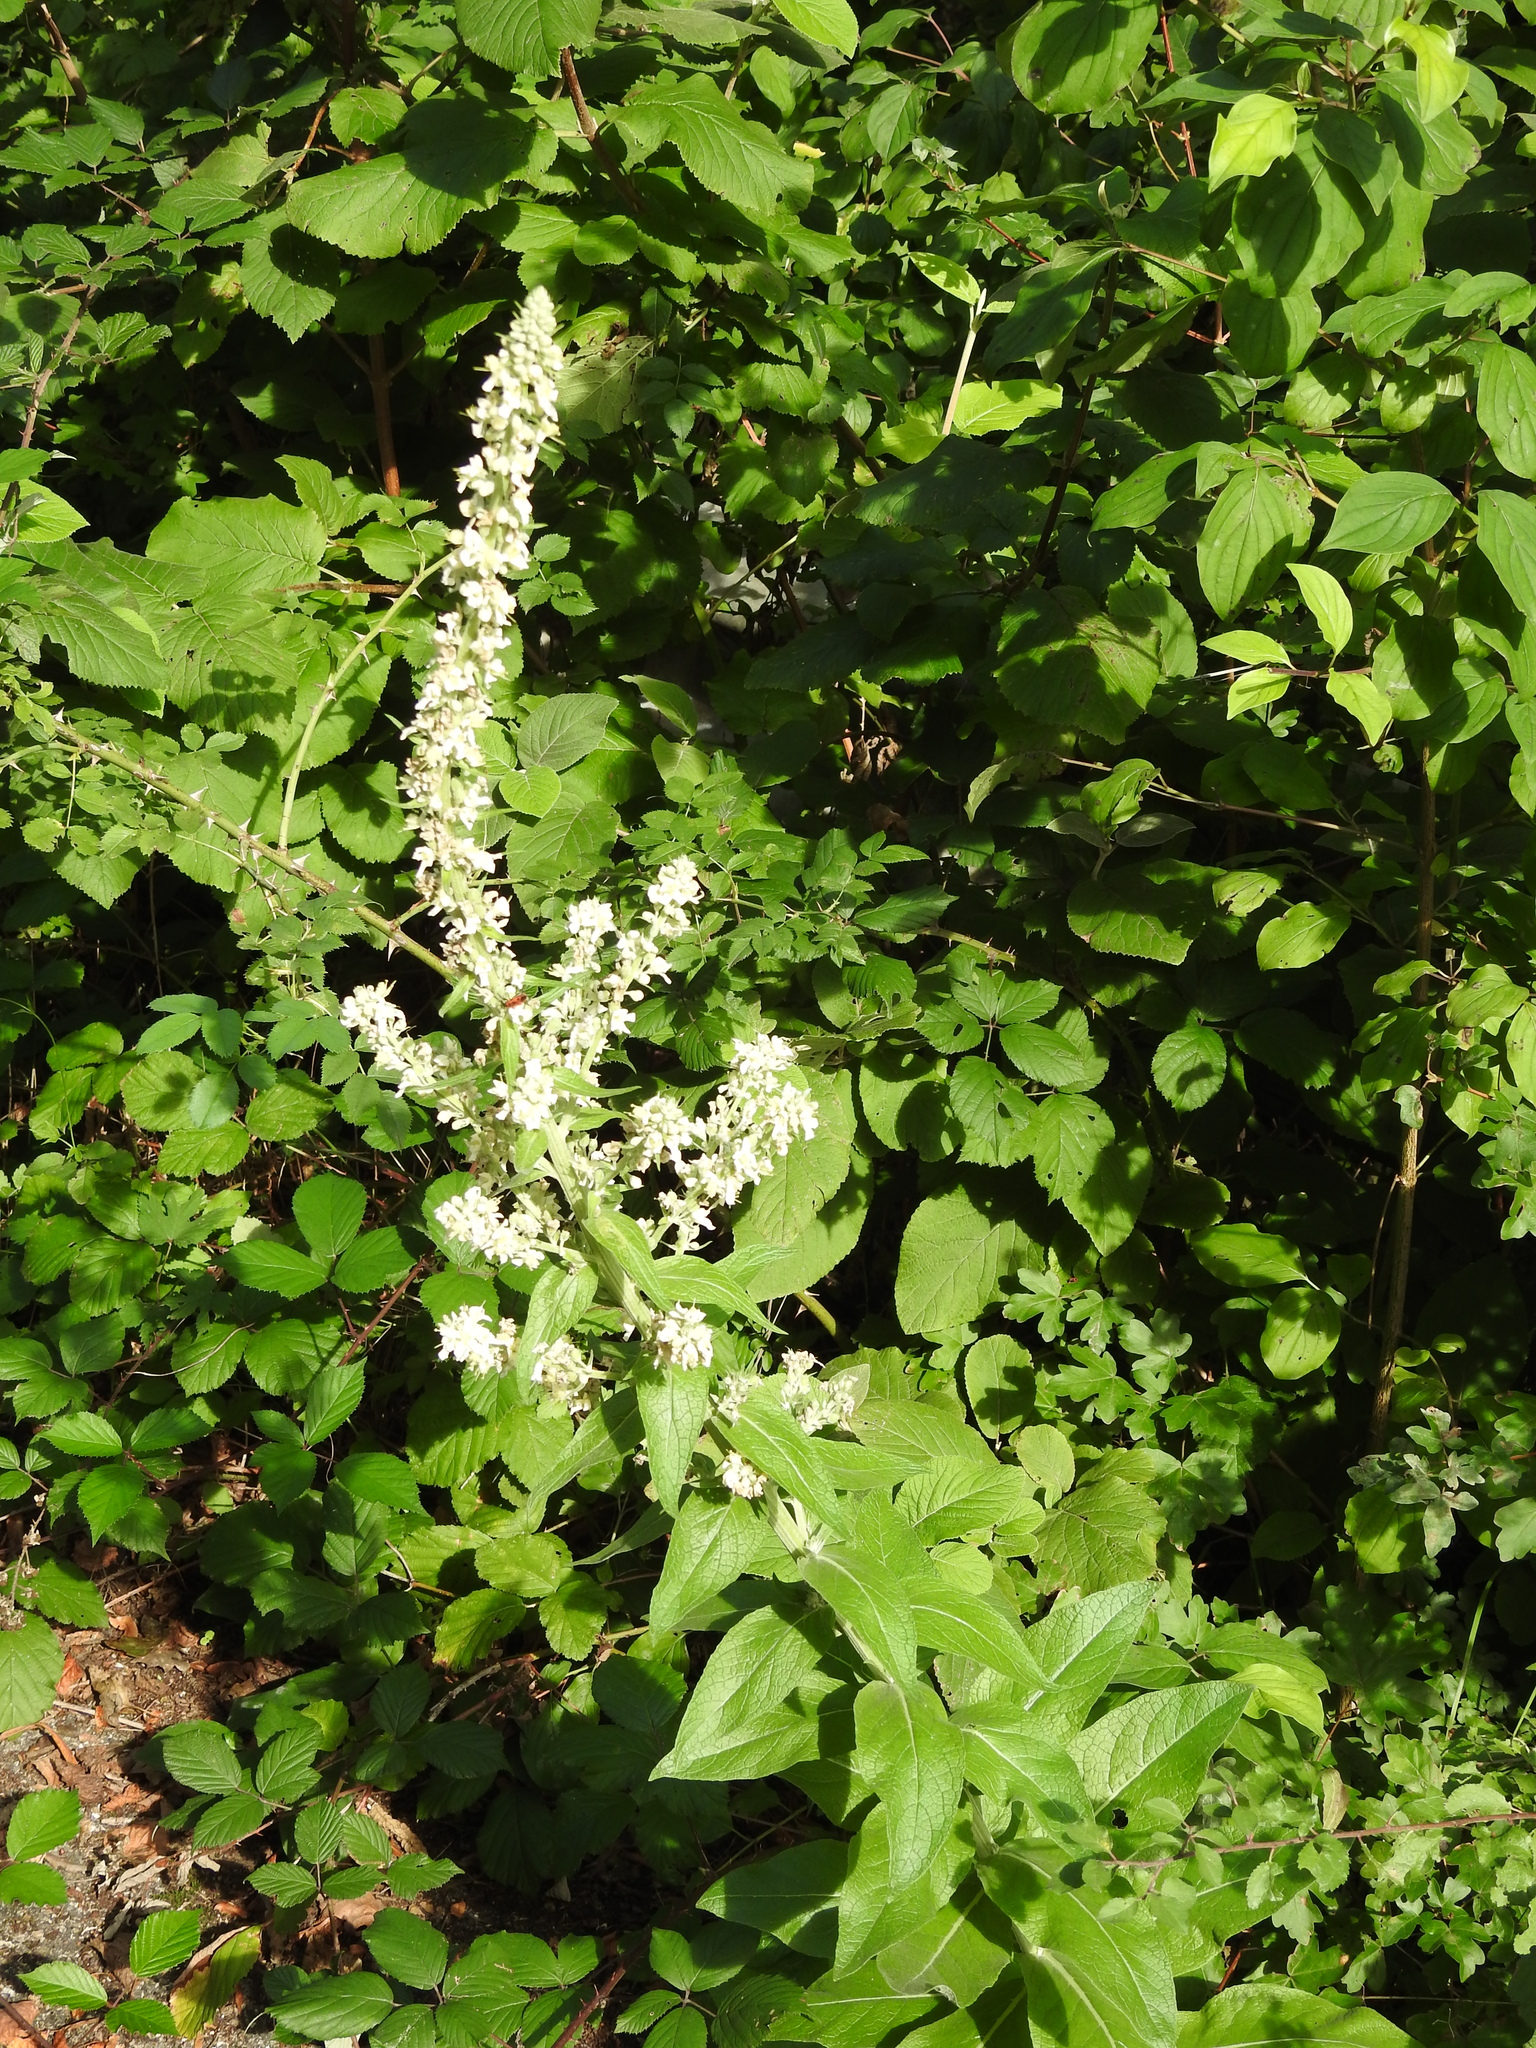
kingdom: Plantae
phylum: Tracheophyta
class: Magnoliopsida
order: Lamiales
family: Scrophulariaceae
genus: Verbascum
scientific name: Verbascum lychnitis
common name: White mullein
